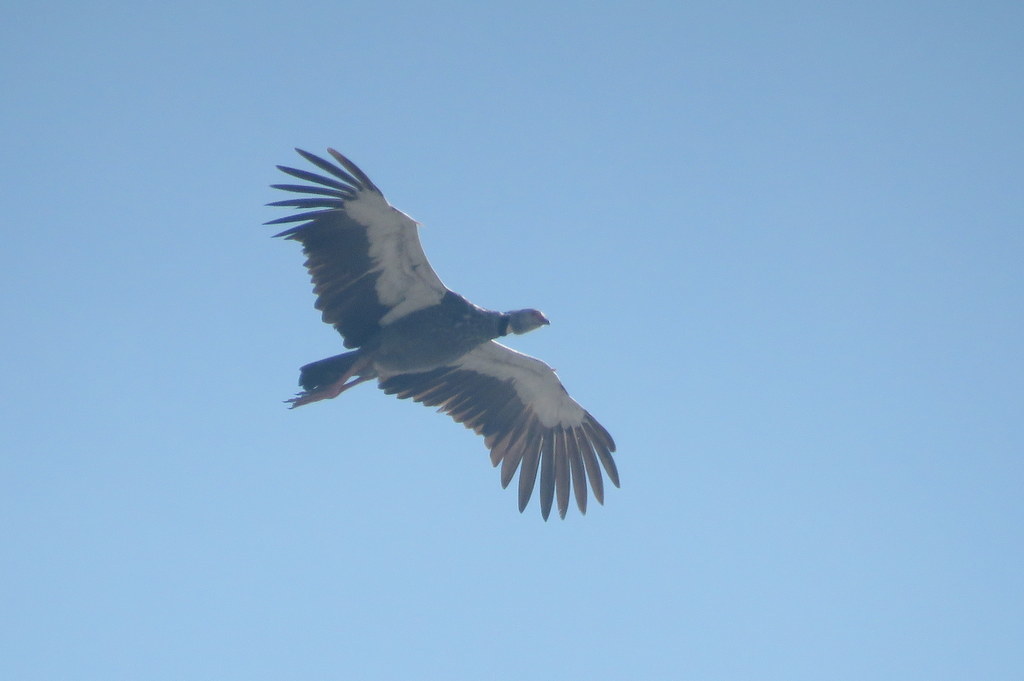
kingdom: Animalia
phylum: Chordata
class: Aves
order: Anseriformes
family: Anhimidae
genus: Chauna
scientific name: Chauna torquata
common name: Southern screamer
